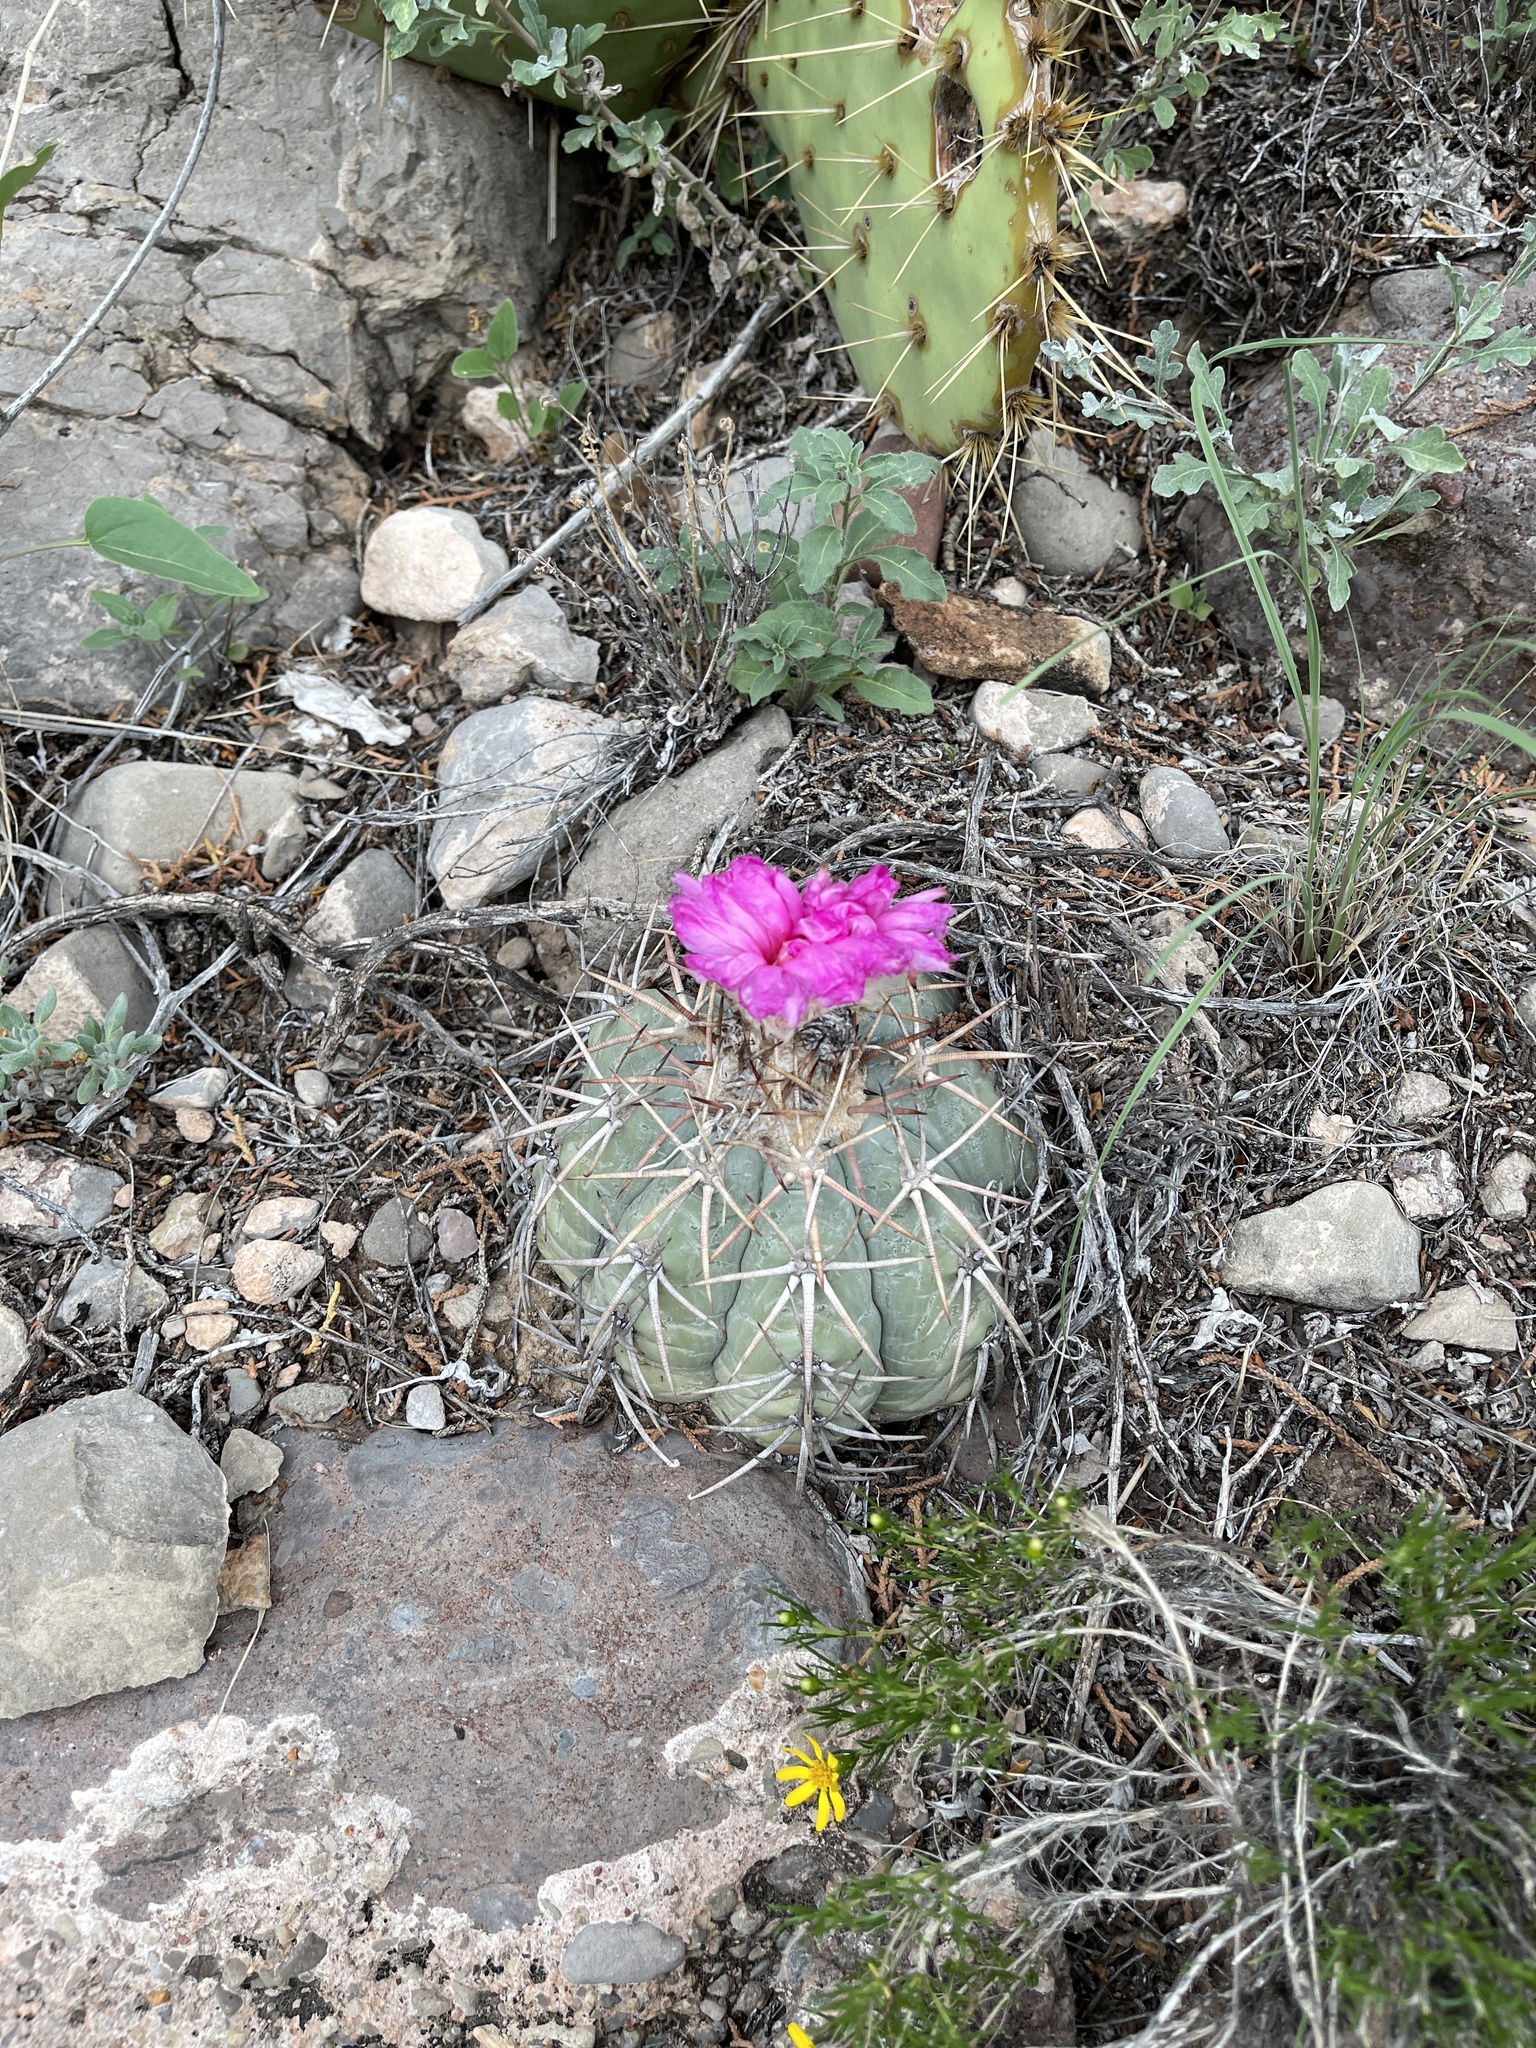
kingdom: Plantae
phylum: Tracheophyta
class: Magnoliopsida
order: Caryophyllales
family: Cactaceae
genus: Echinocactus
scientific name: Echinocactus horizonthalonius
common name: Devilshead
